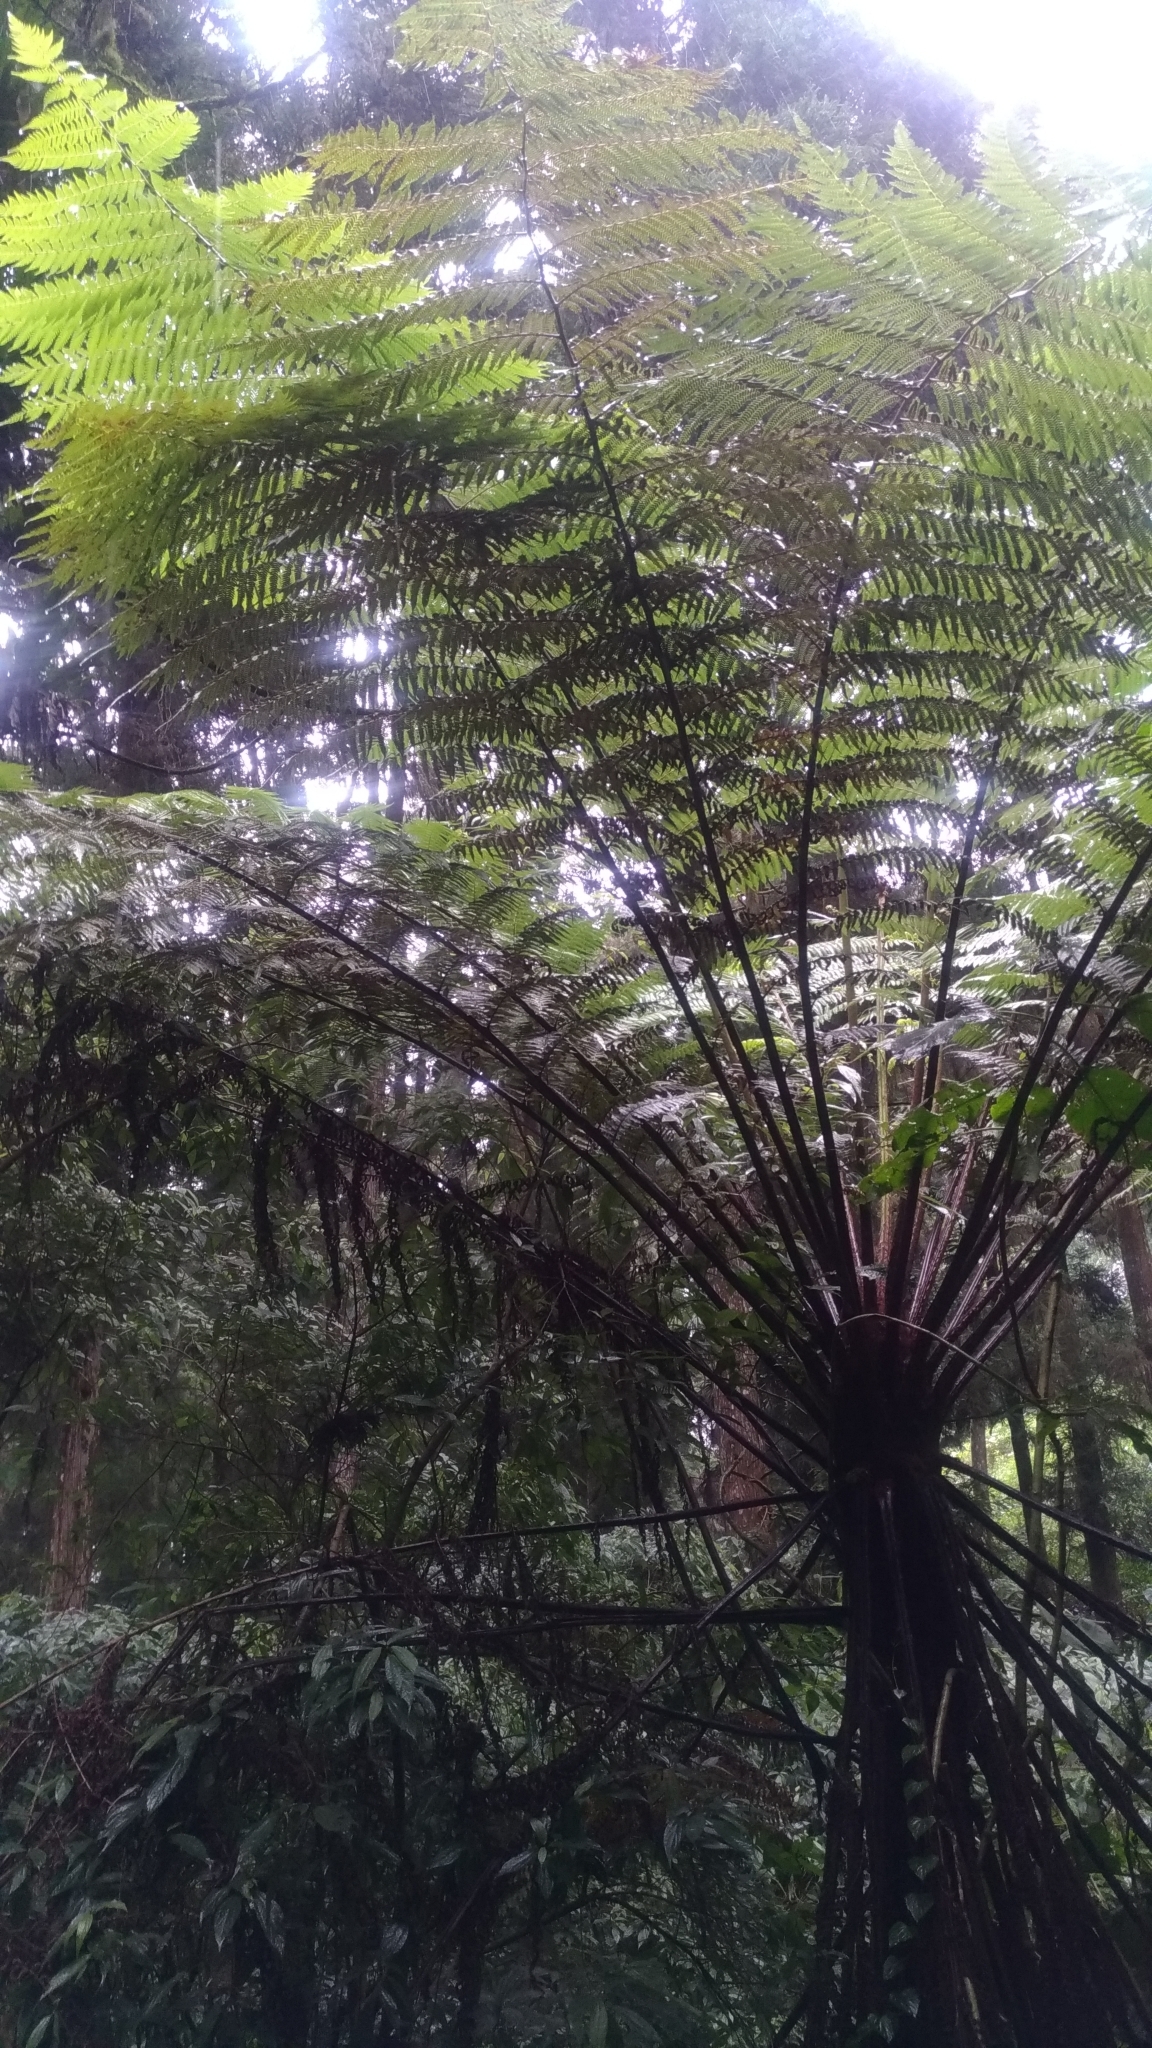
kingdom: Plantae
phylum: Tracheophyta
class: Polypodiopsida
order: Cyatheales
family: Cyatheaceae
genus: Alsophila
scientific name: Alsophila spinulosa
